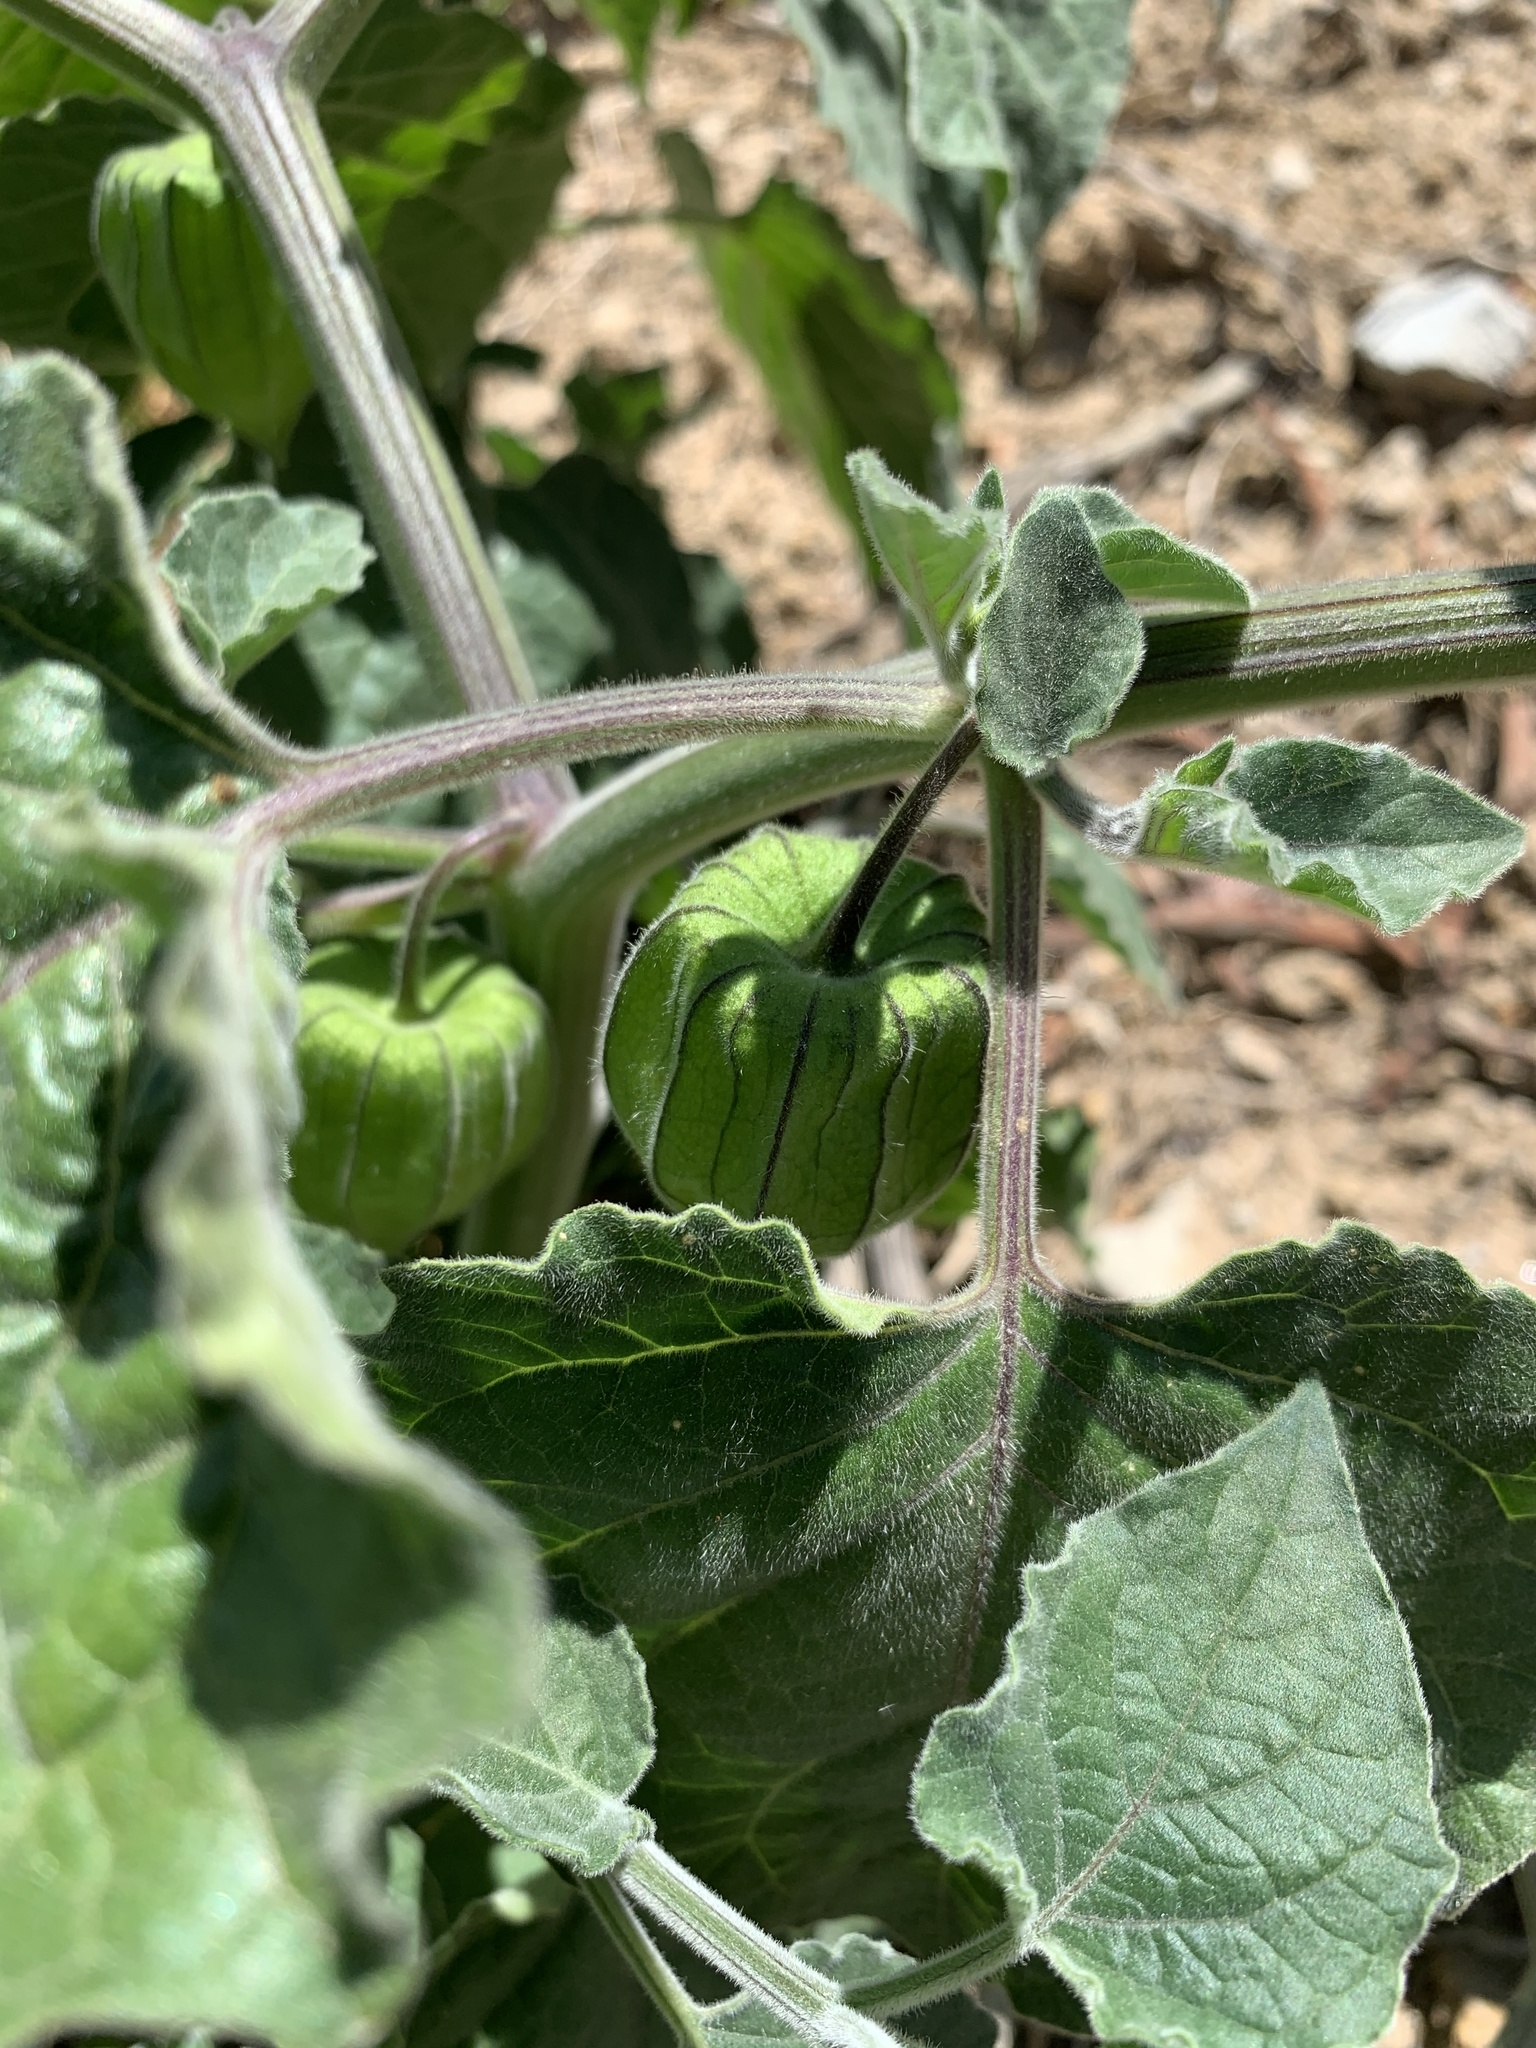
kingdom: Plantae
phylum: Tracheophyta
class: Magnoliopsida
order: Solanales
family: Solanaceae
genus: Physalis
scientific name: Physalis peruviana
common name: Cape-gooseberry
